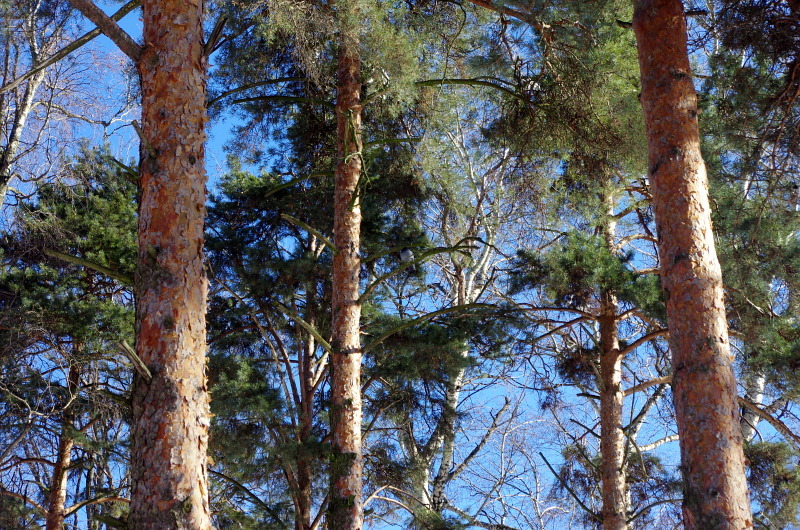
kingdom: Plantae
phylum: Tracheophyta
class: Pinopsida
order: Pinales
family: Pinaceae
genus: Pinus
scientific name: Pinus sylvestris
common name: Scots pine
